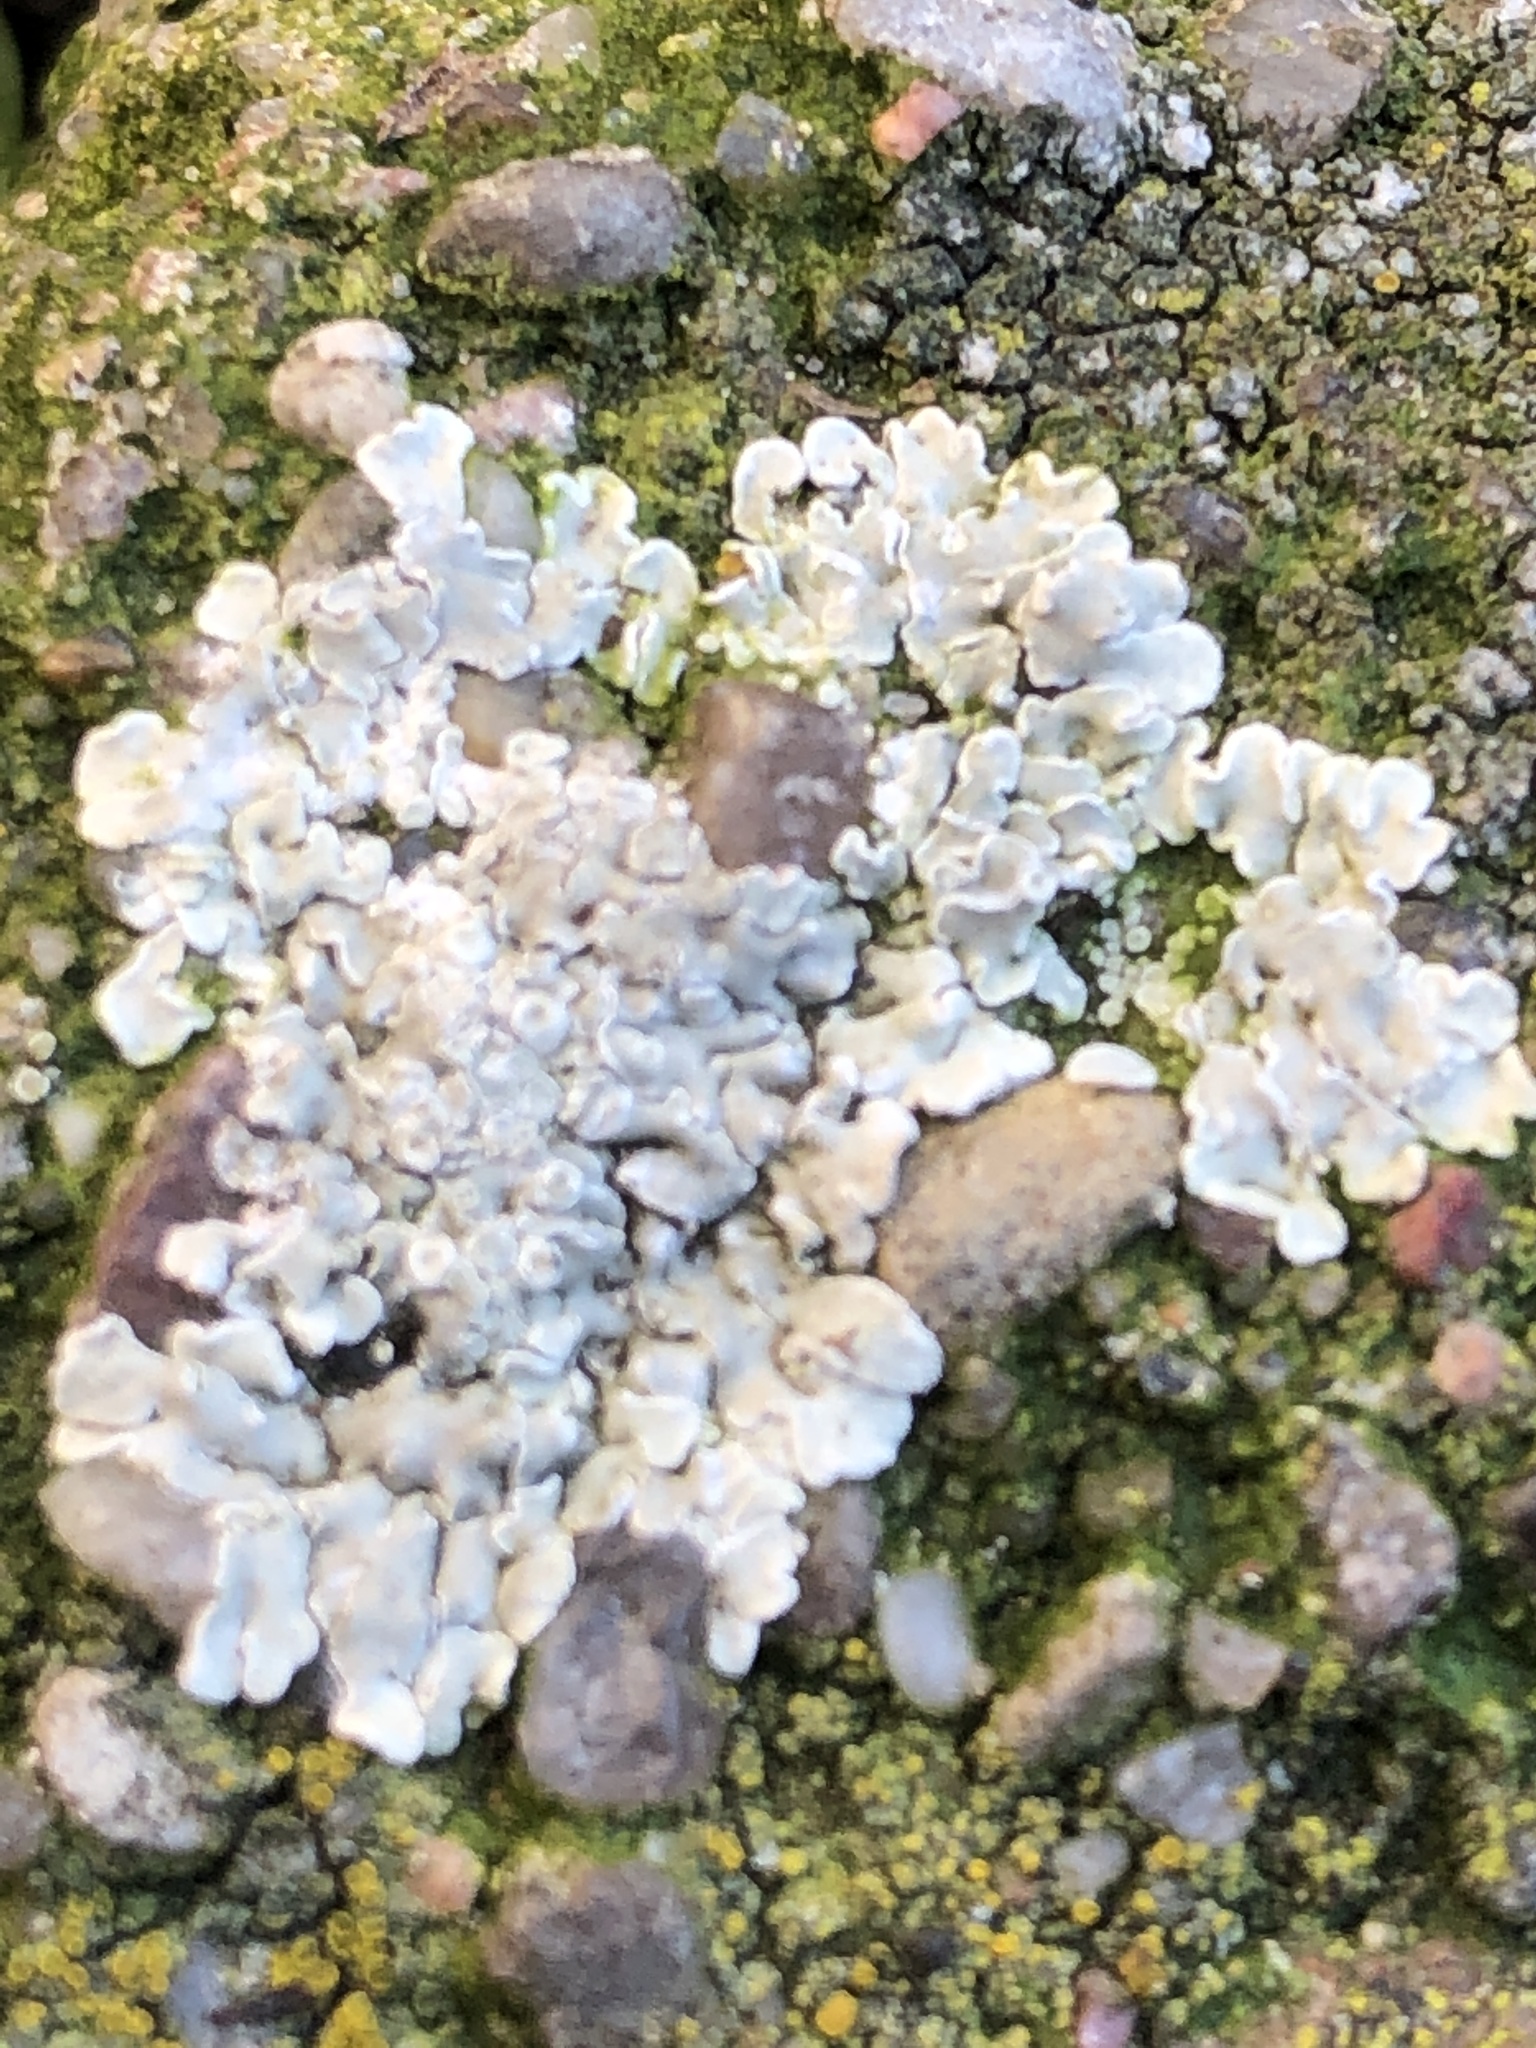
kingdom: Fungi
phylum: Ascomycota
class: Lecanoromycetes
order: Lecanorales
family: Lecanoraceae
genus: Protoparmeliopsis
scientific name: Protoparmeliopsis muralis
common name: Stonewall rim lichen
